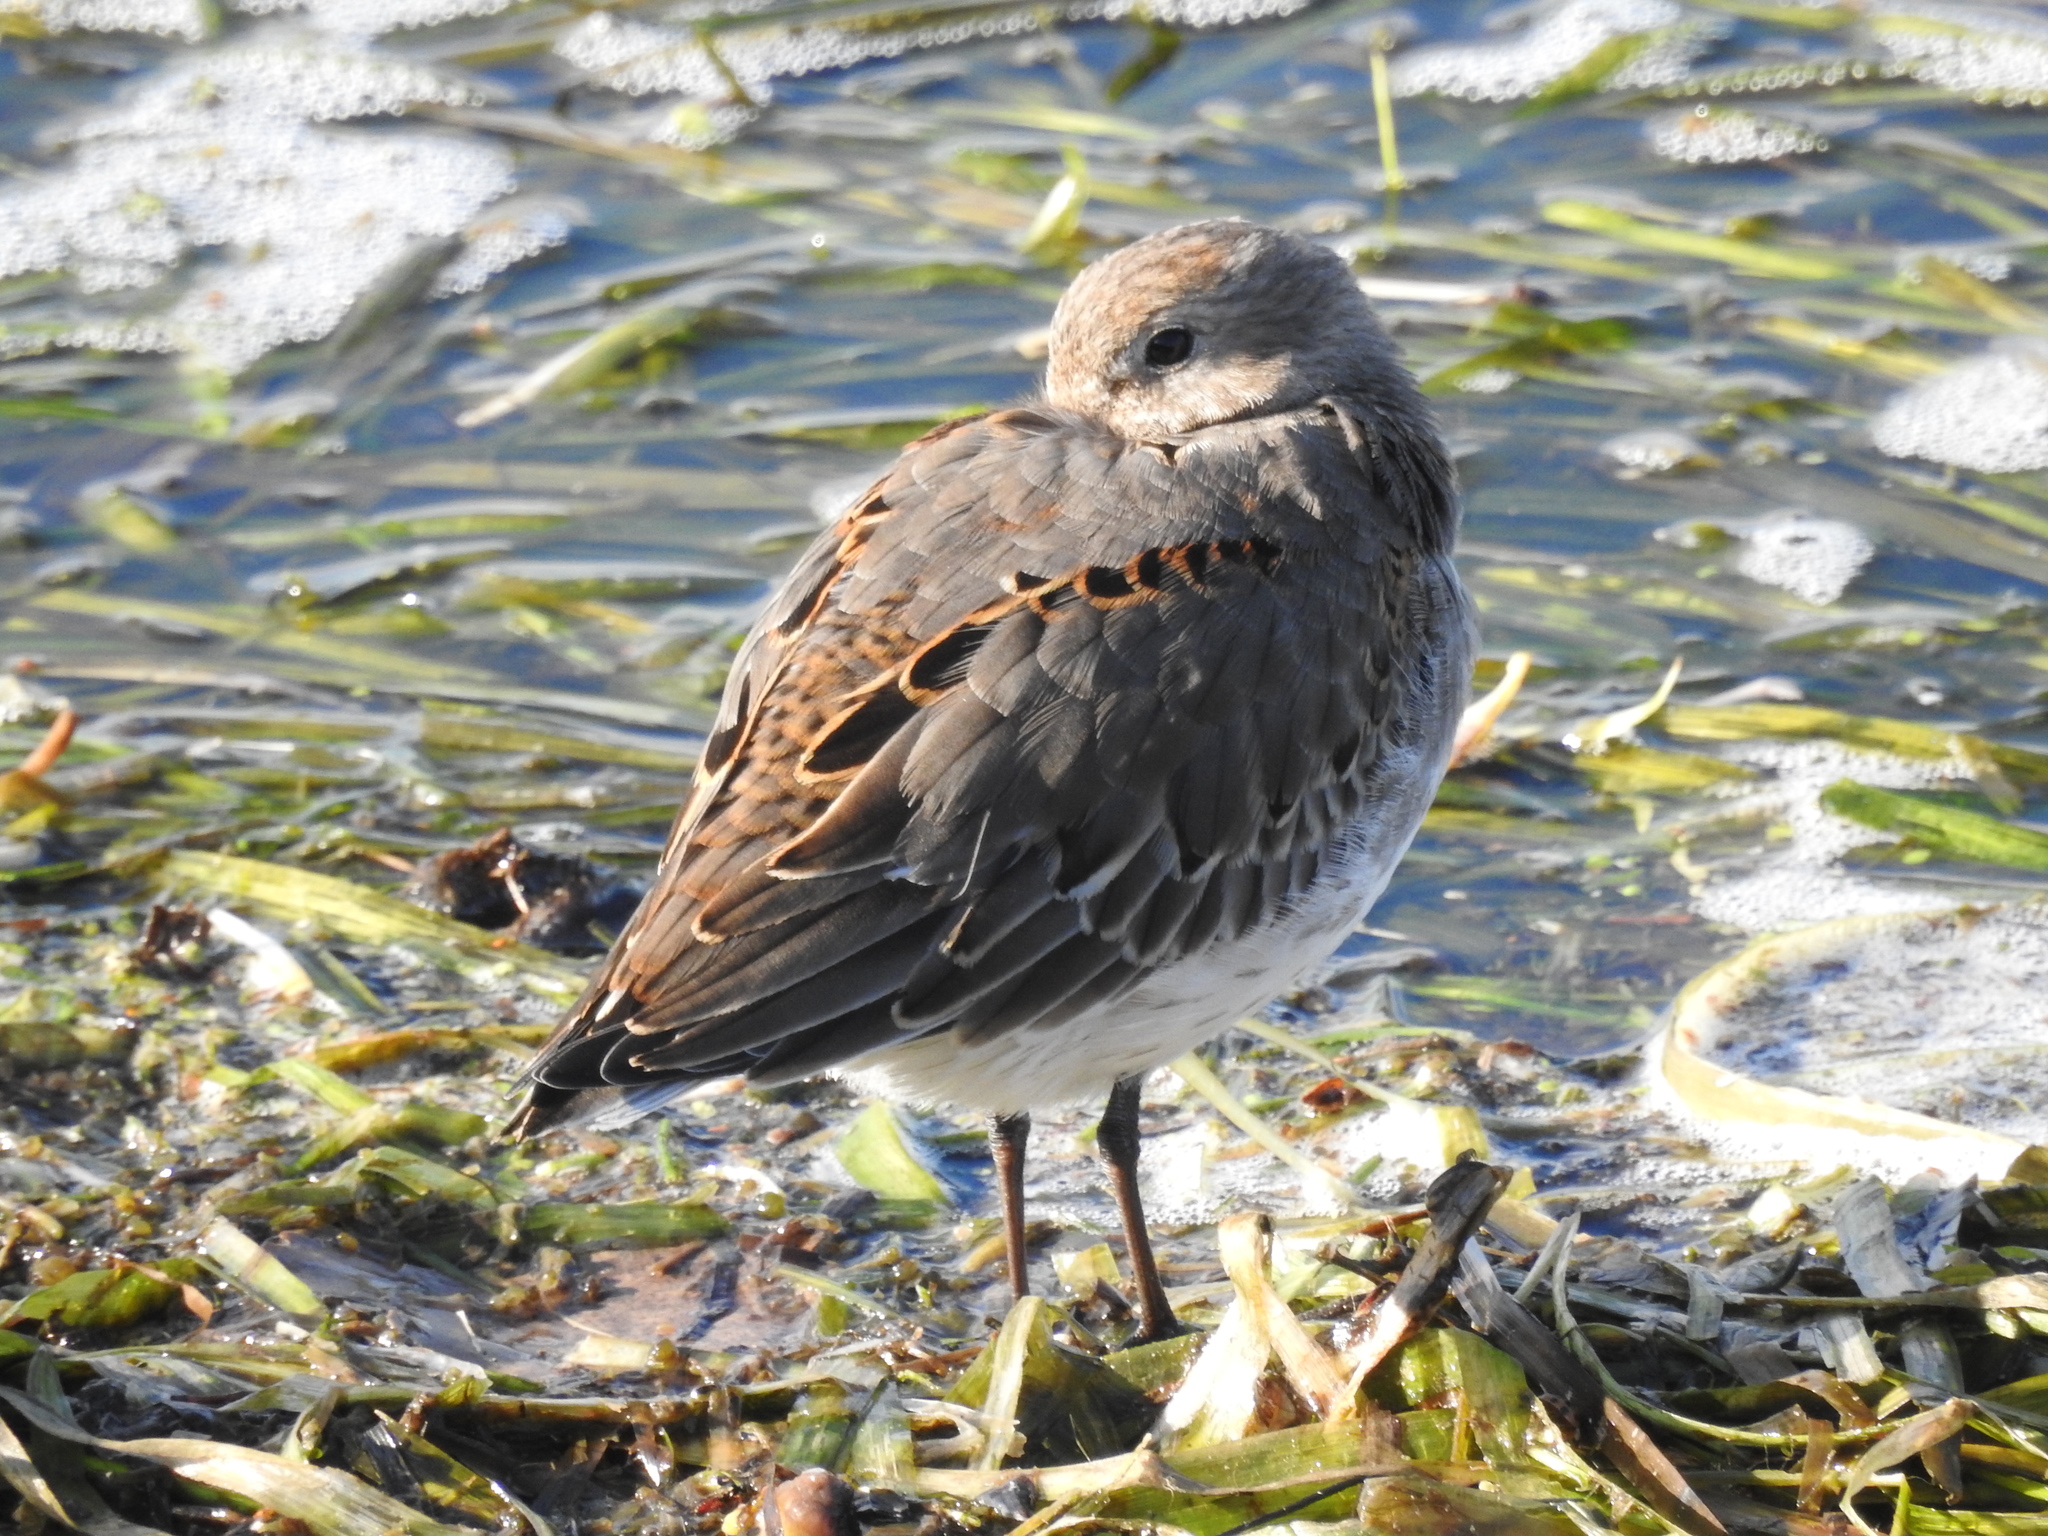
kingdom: Animalia
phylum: Chordata
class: Aves
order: Charadriiformes
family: Scolopacidae
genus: Calidris
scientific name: Calidris alpina
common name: Dunlin
